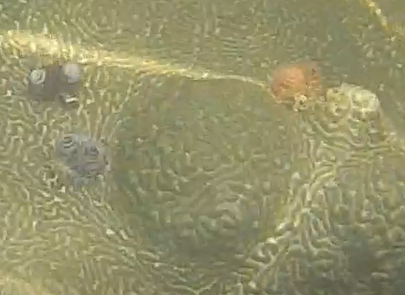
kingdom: Animalia
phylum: Annelida
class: Polychaeta
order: Sabellida
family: Serpulidae
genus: Spirobranchus
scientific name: Spirobranchus giganteus
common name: Christmas tree worm
